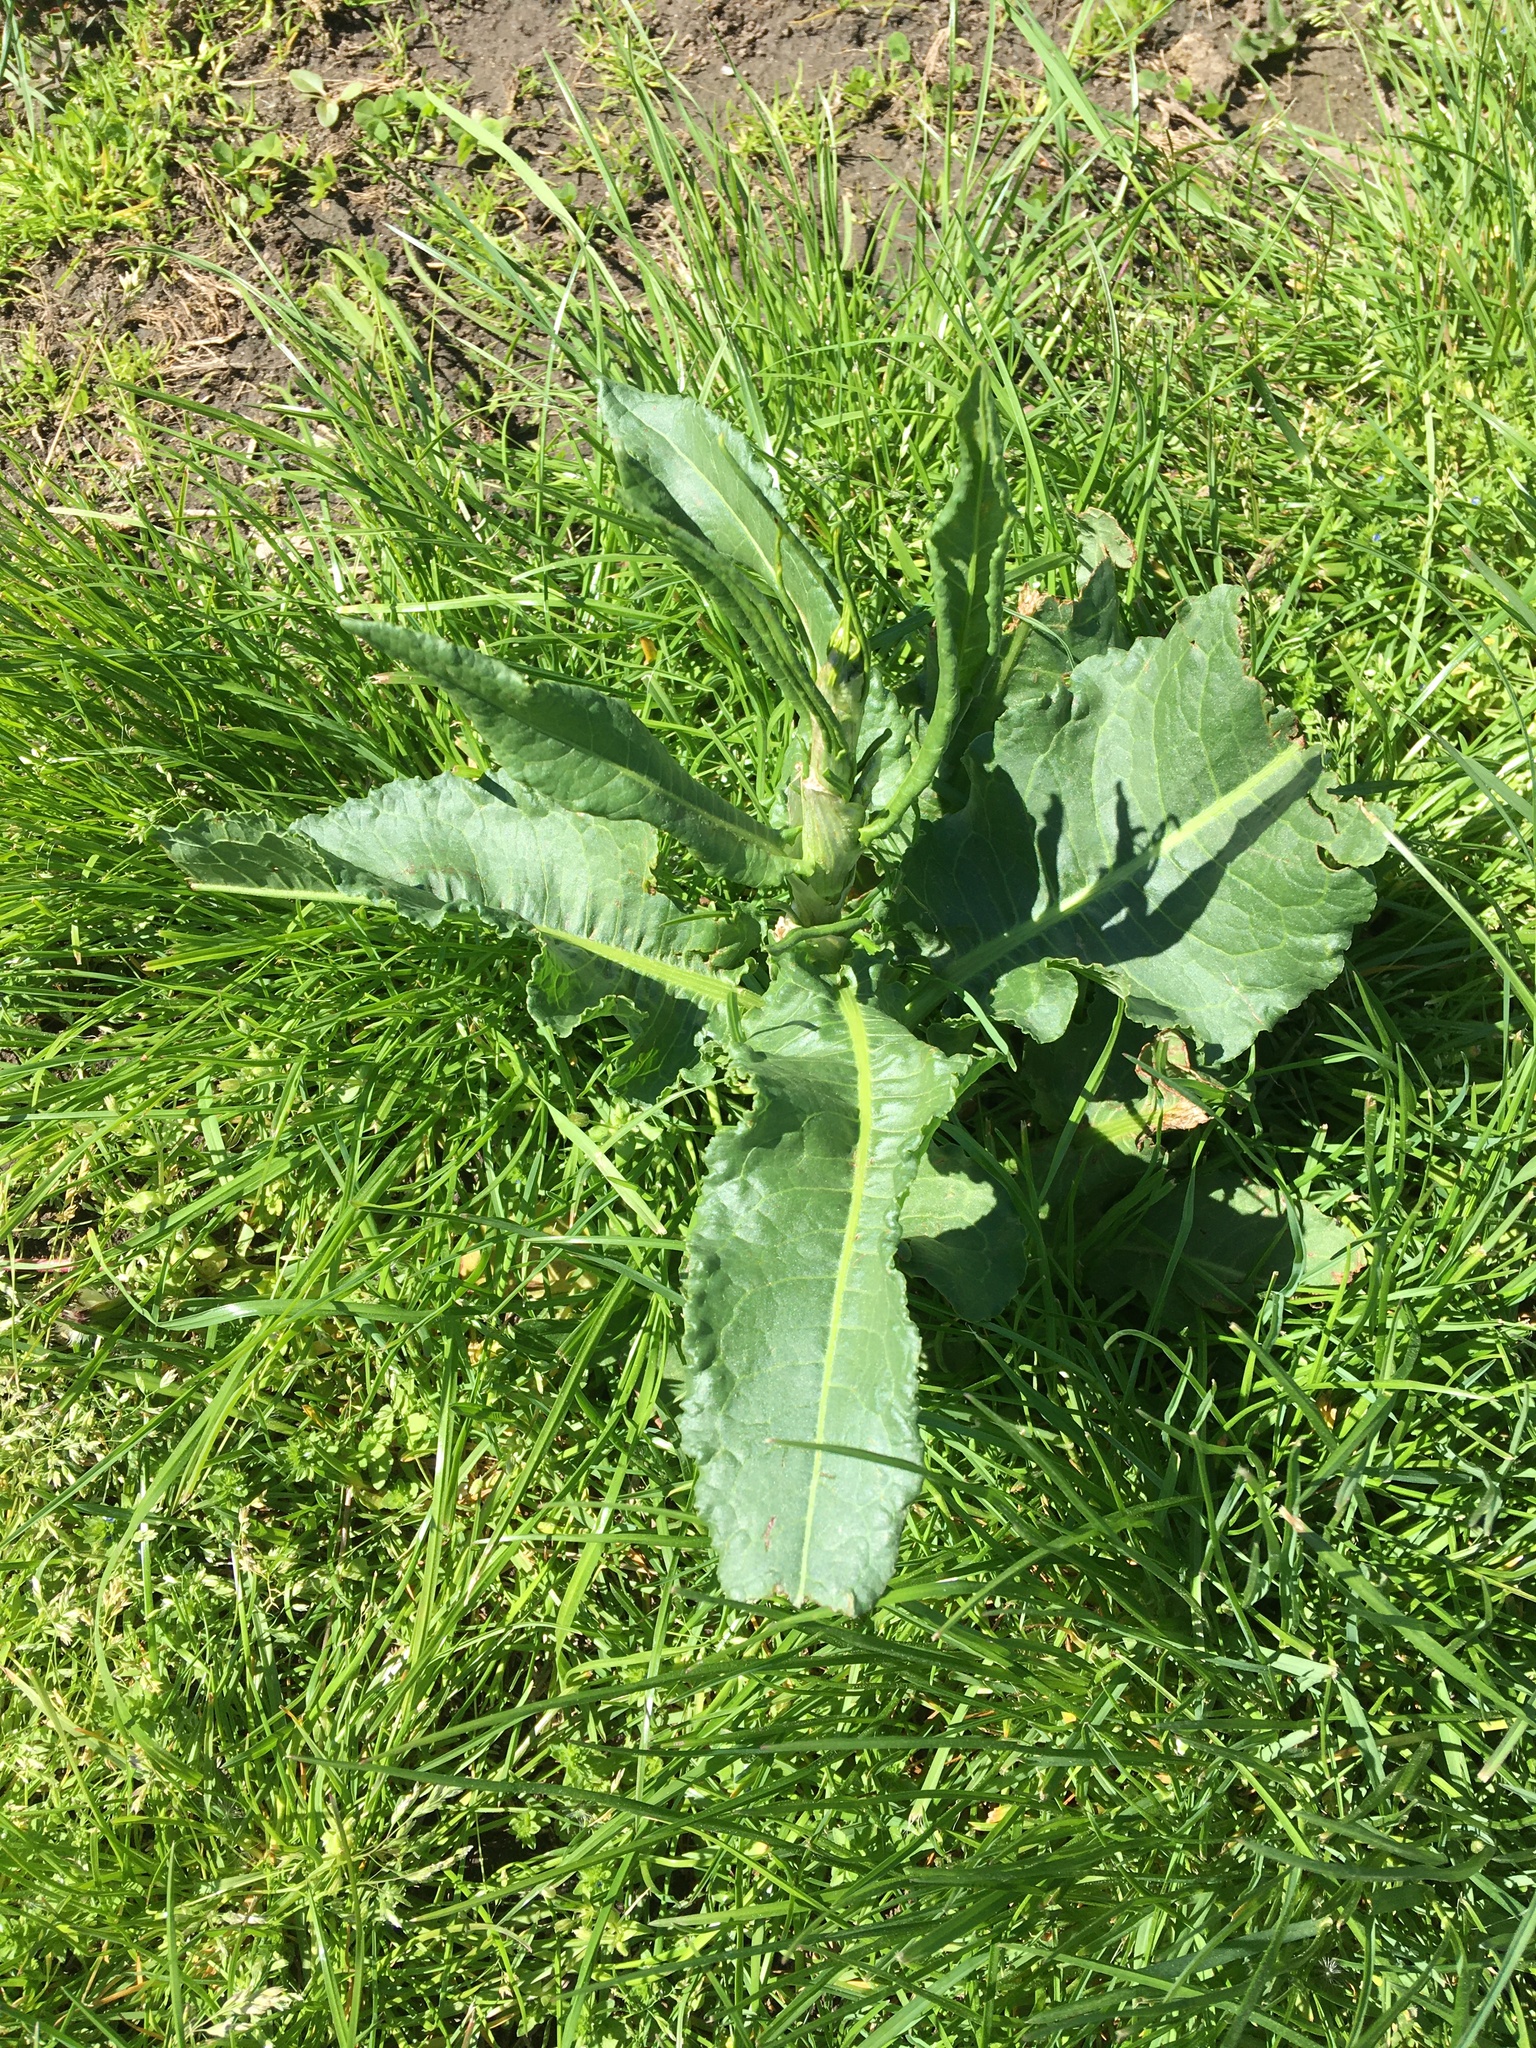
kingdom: Plantae
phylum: Tracheophyta
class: Magnoliopsida
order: Caryophyllales
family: Polygonaceae
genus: Rumex
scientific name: Rumex obtusifolius
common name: Bitter dock
